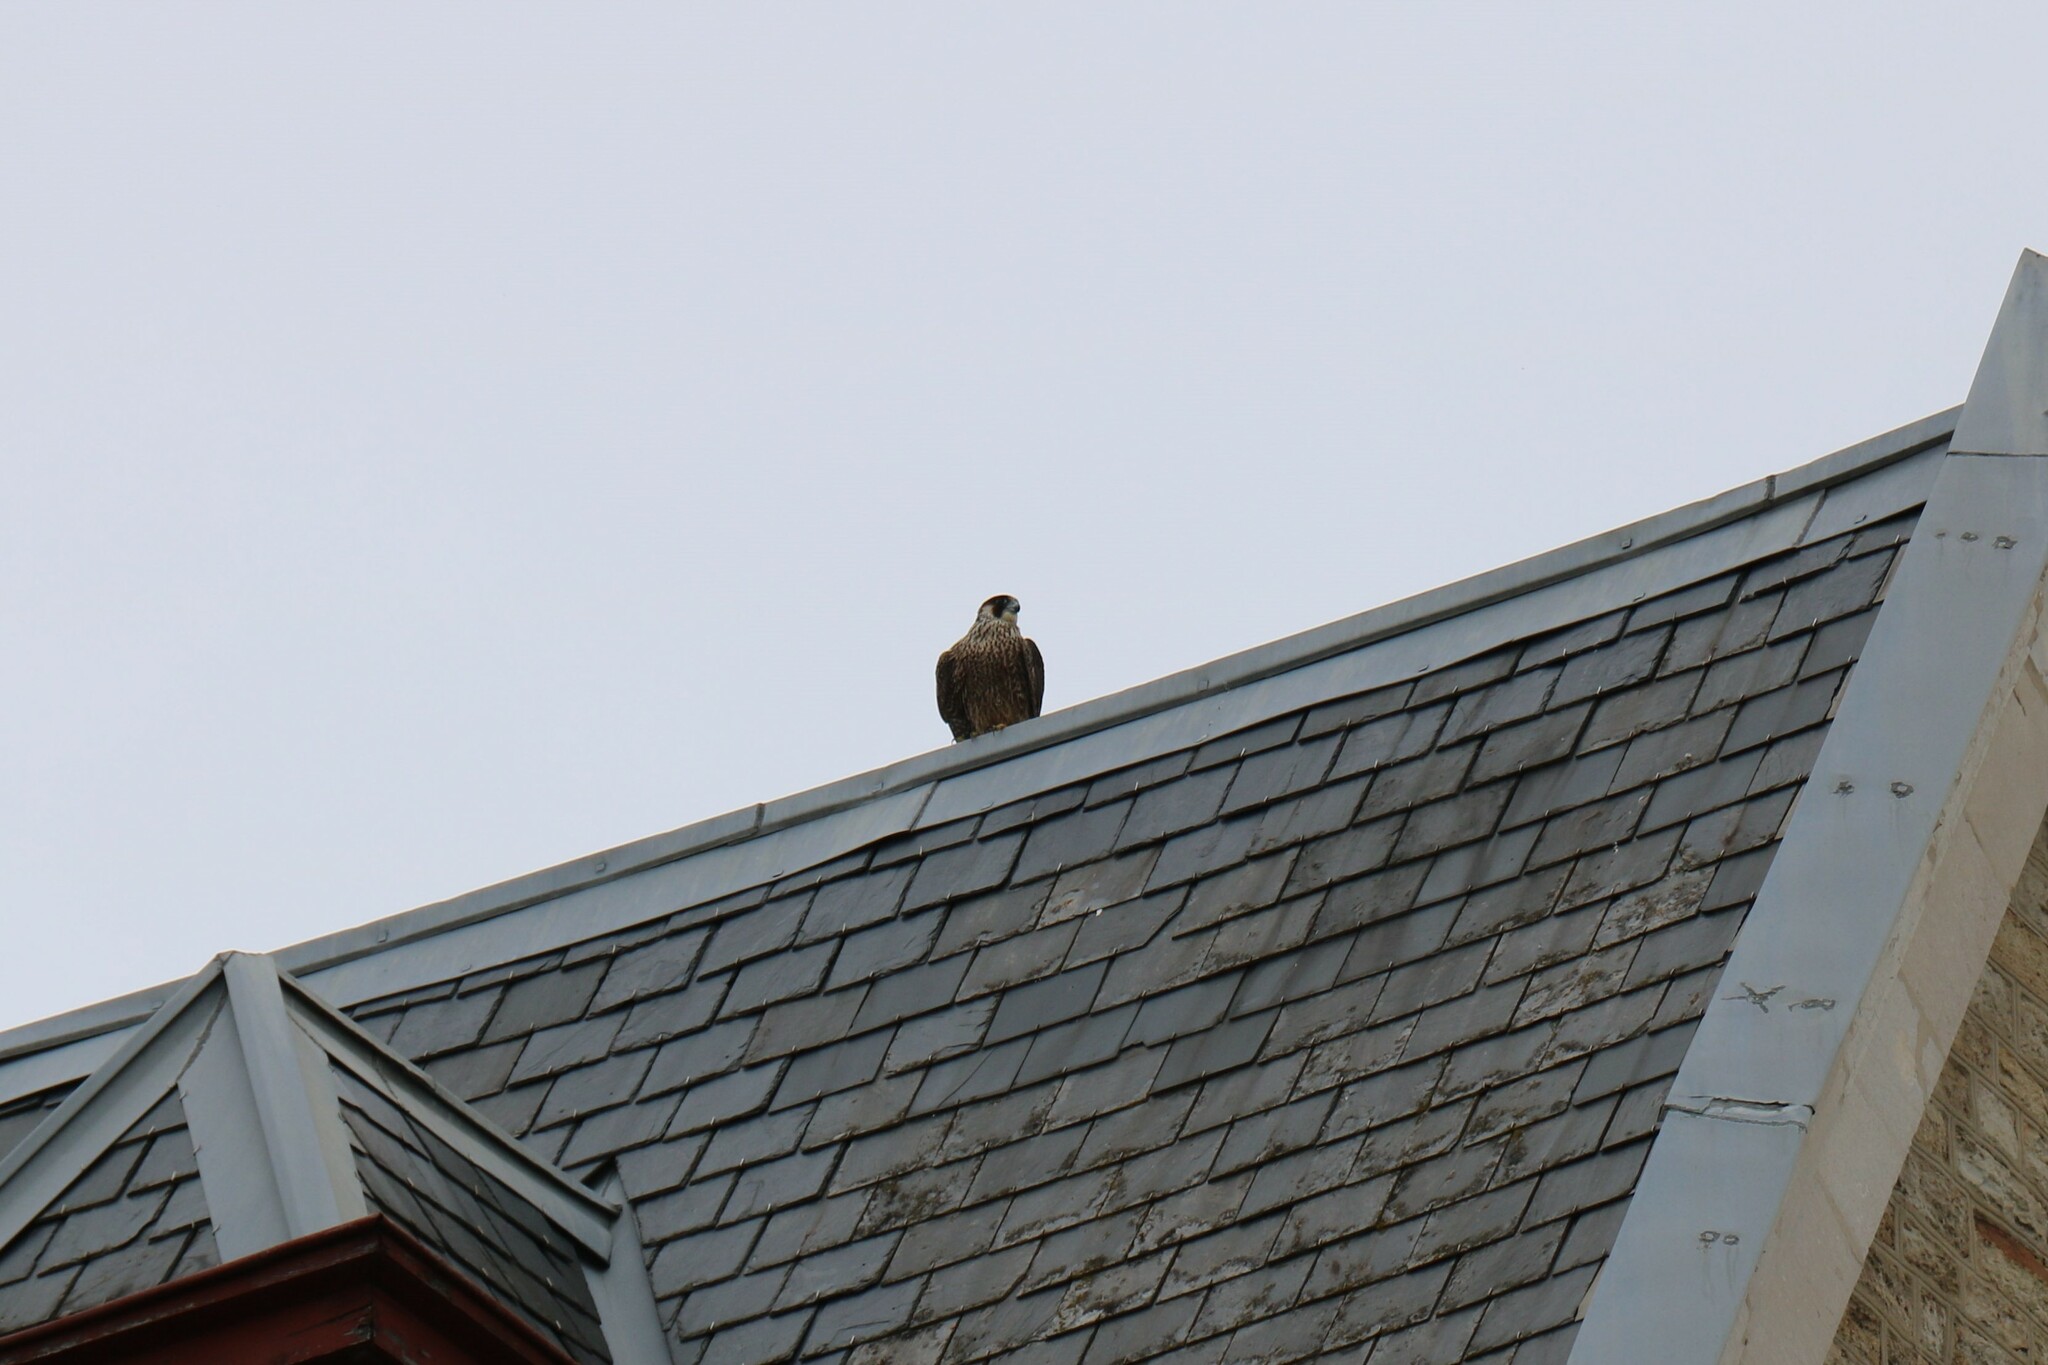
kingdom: Animalia
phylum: Chordata
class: Aves
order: Falconiformes
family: Falconidae
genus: Falco
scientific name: Falco peregrinus
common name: Peregrine falcon
